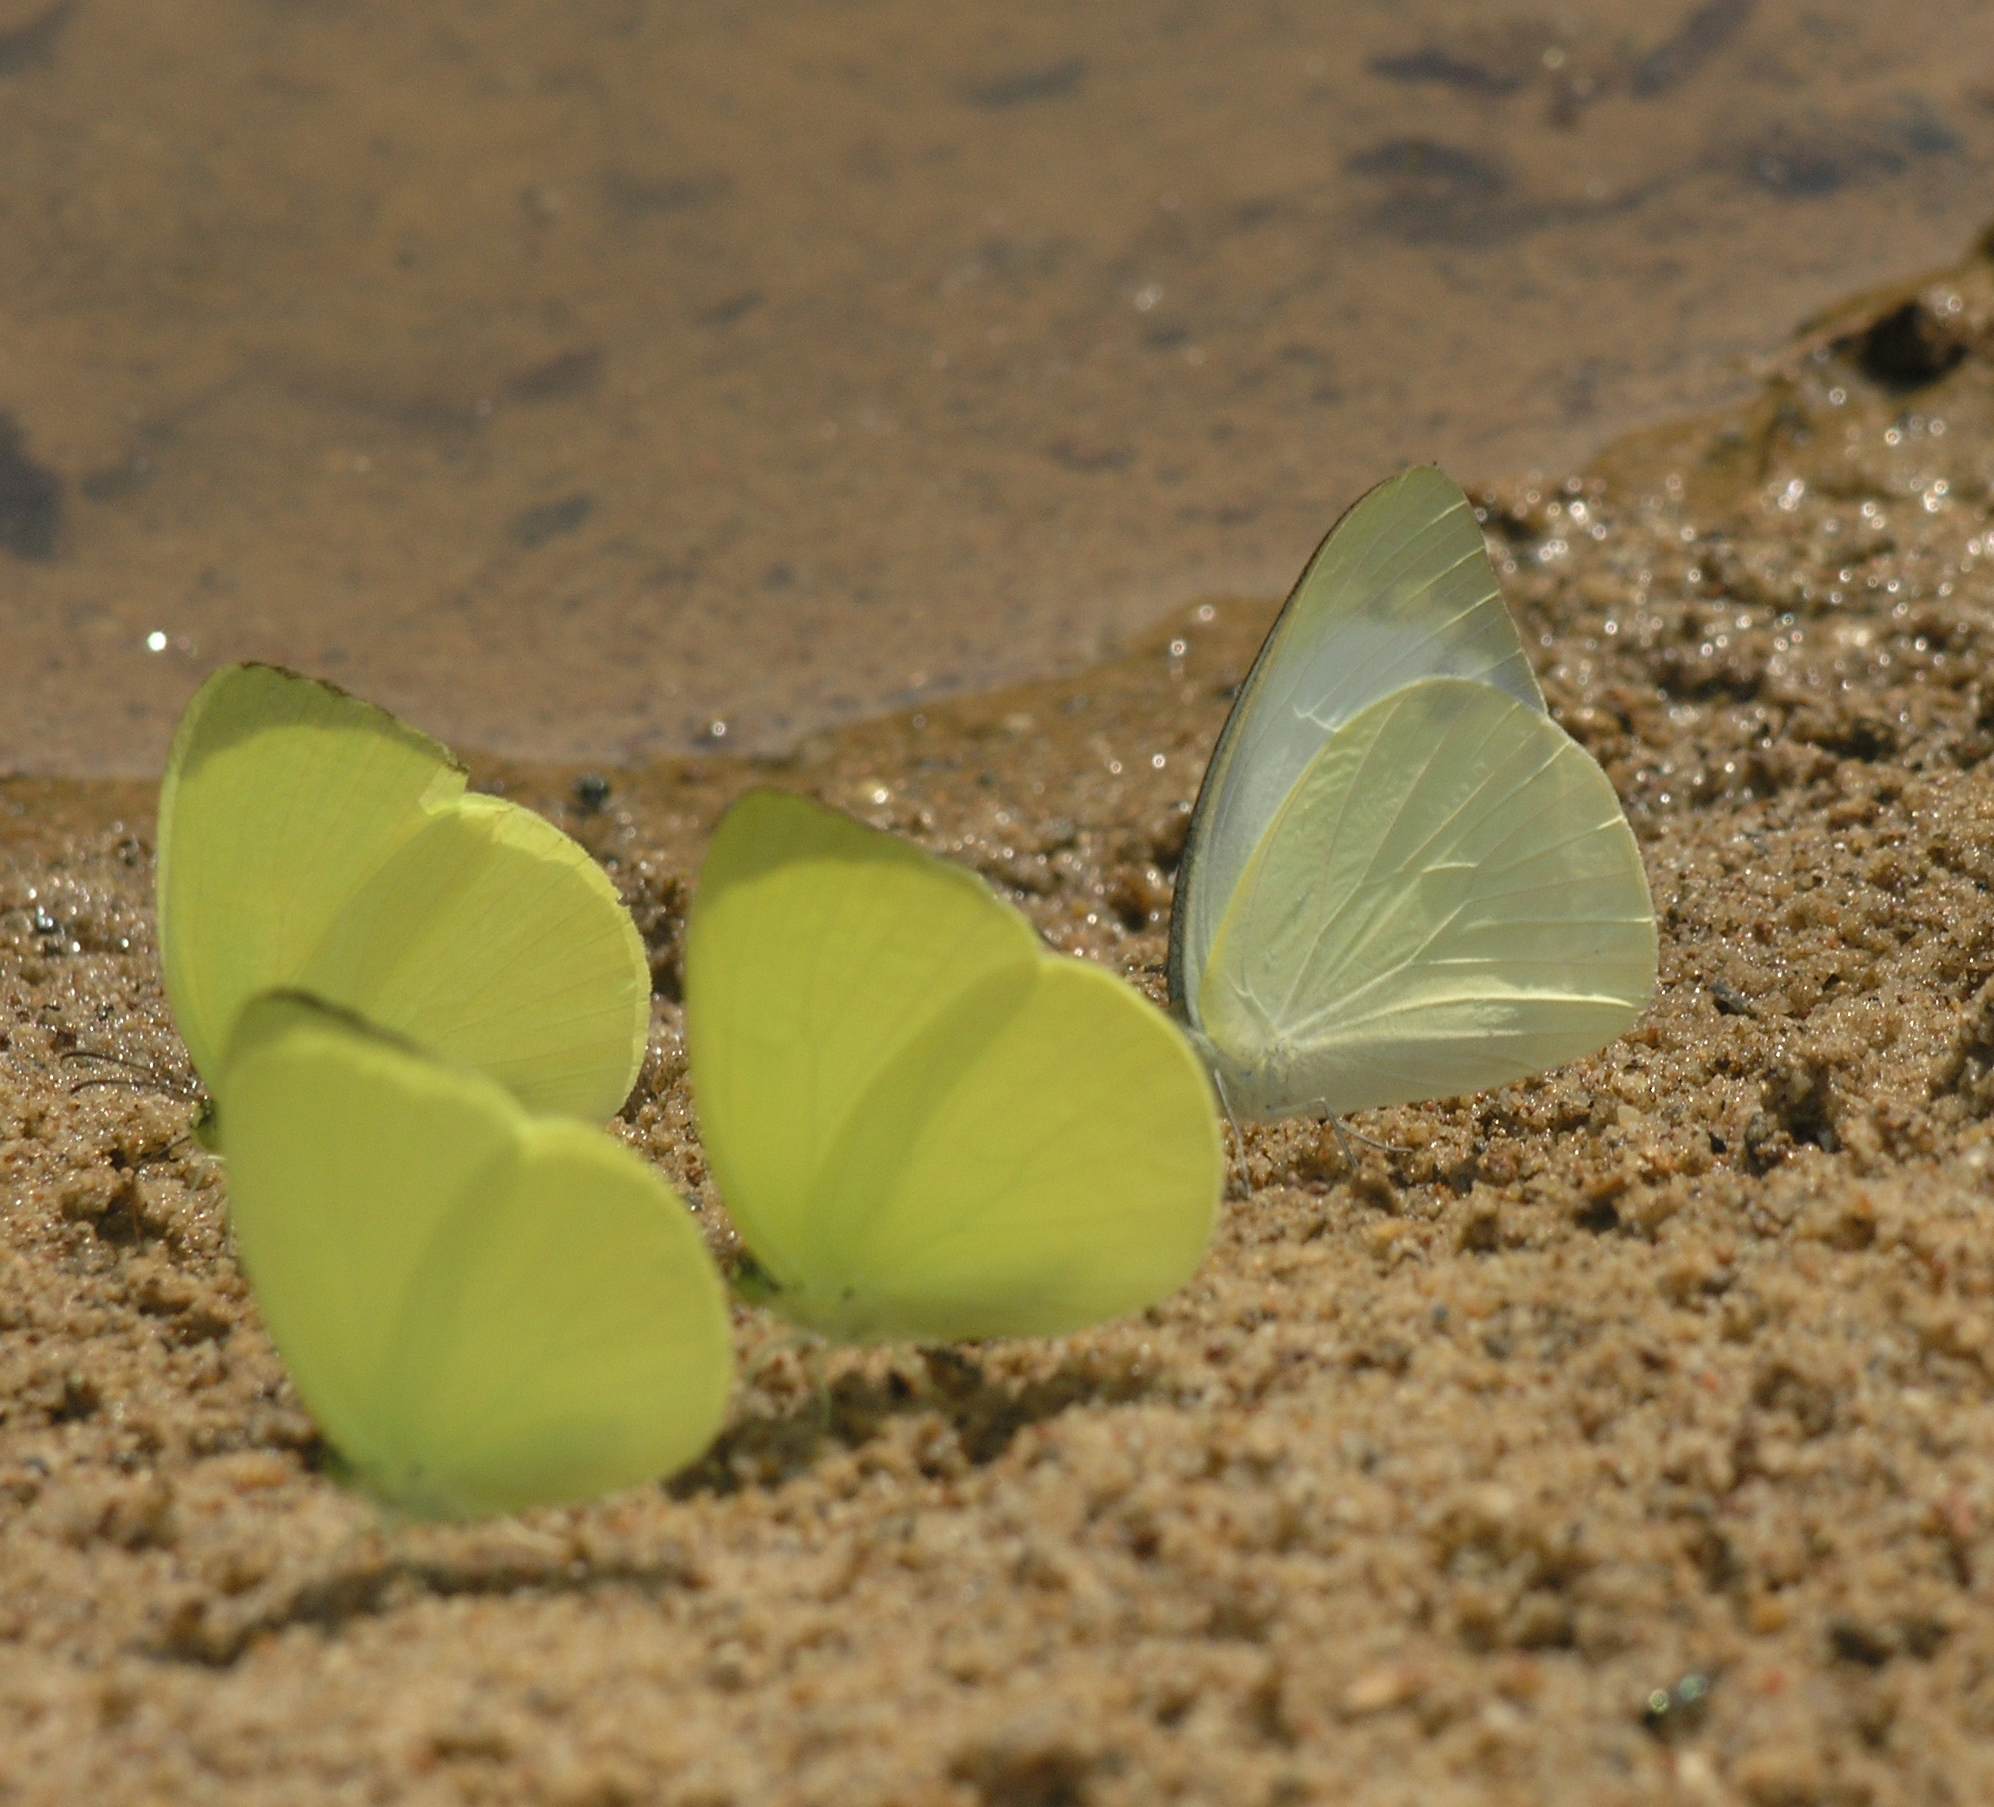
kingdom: Animalia
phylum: Arthropoda
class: Insecta
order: Lepidoptera
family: Pieridae
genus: Appias
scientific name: Appias albina
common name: Common albatross
